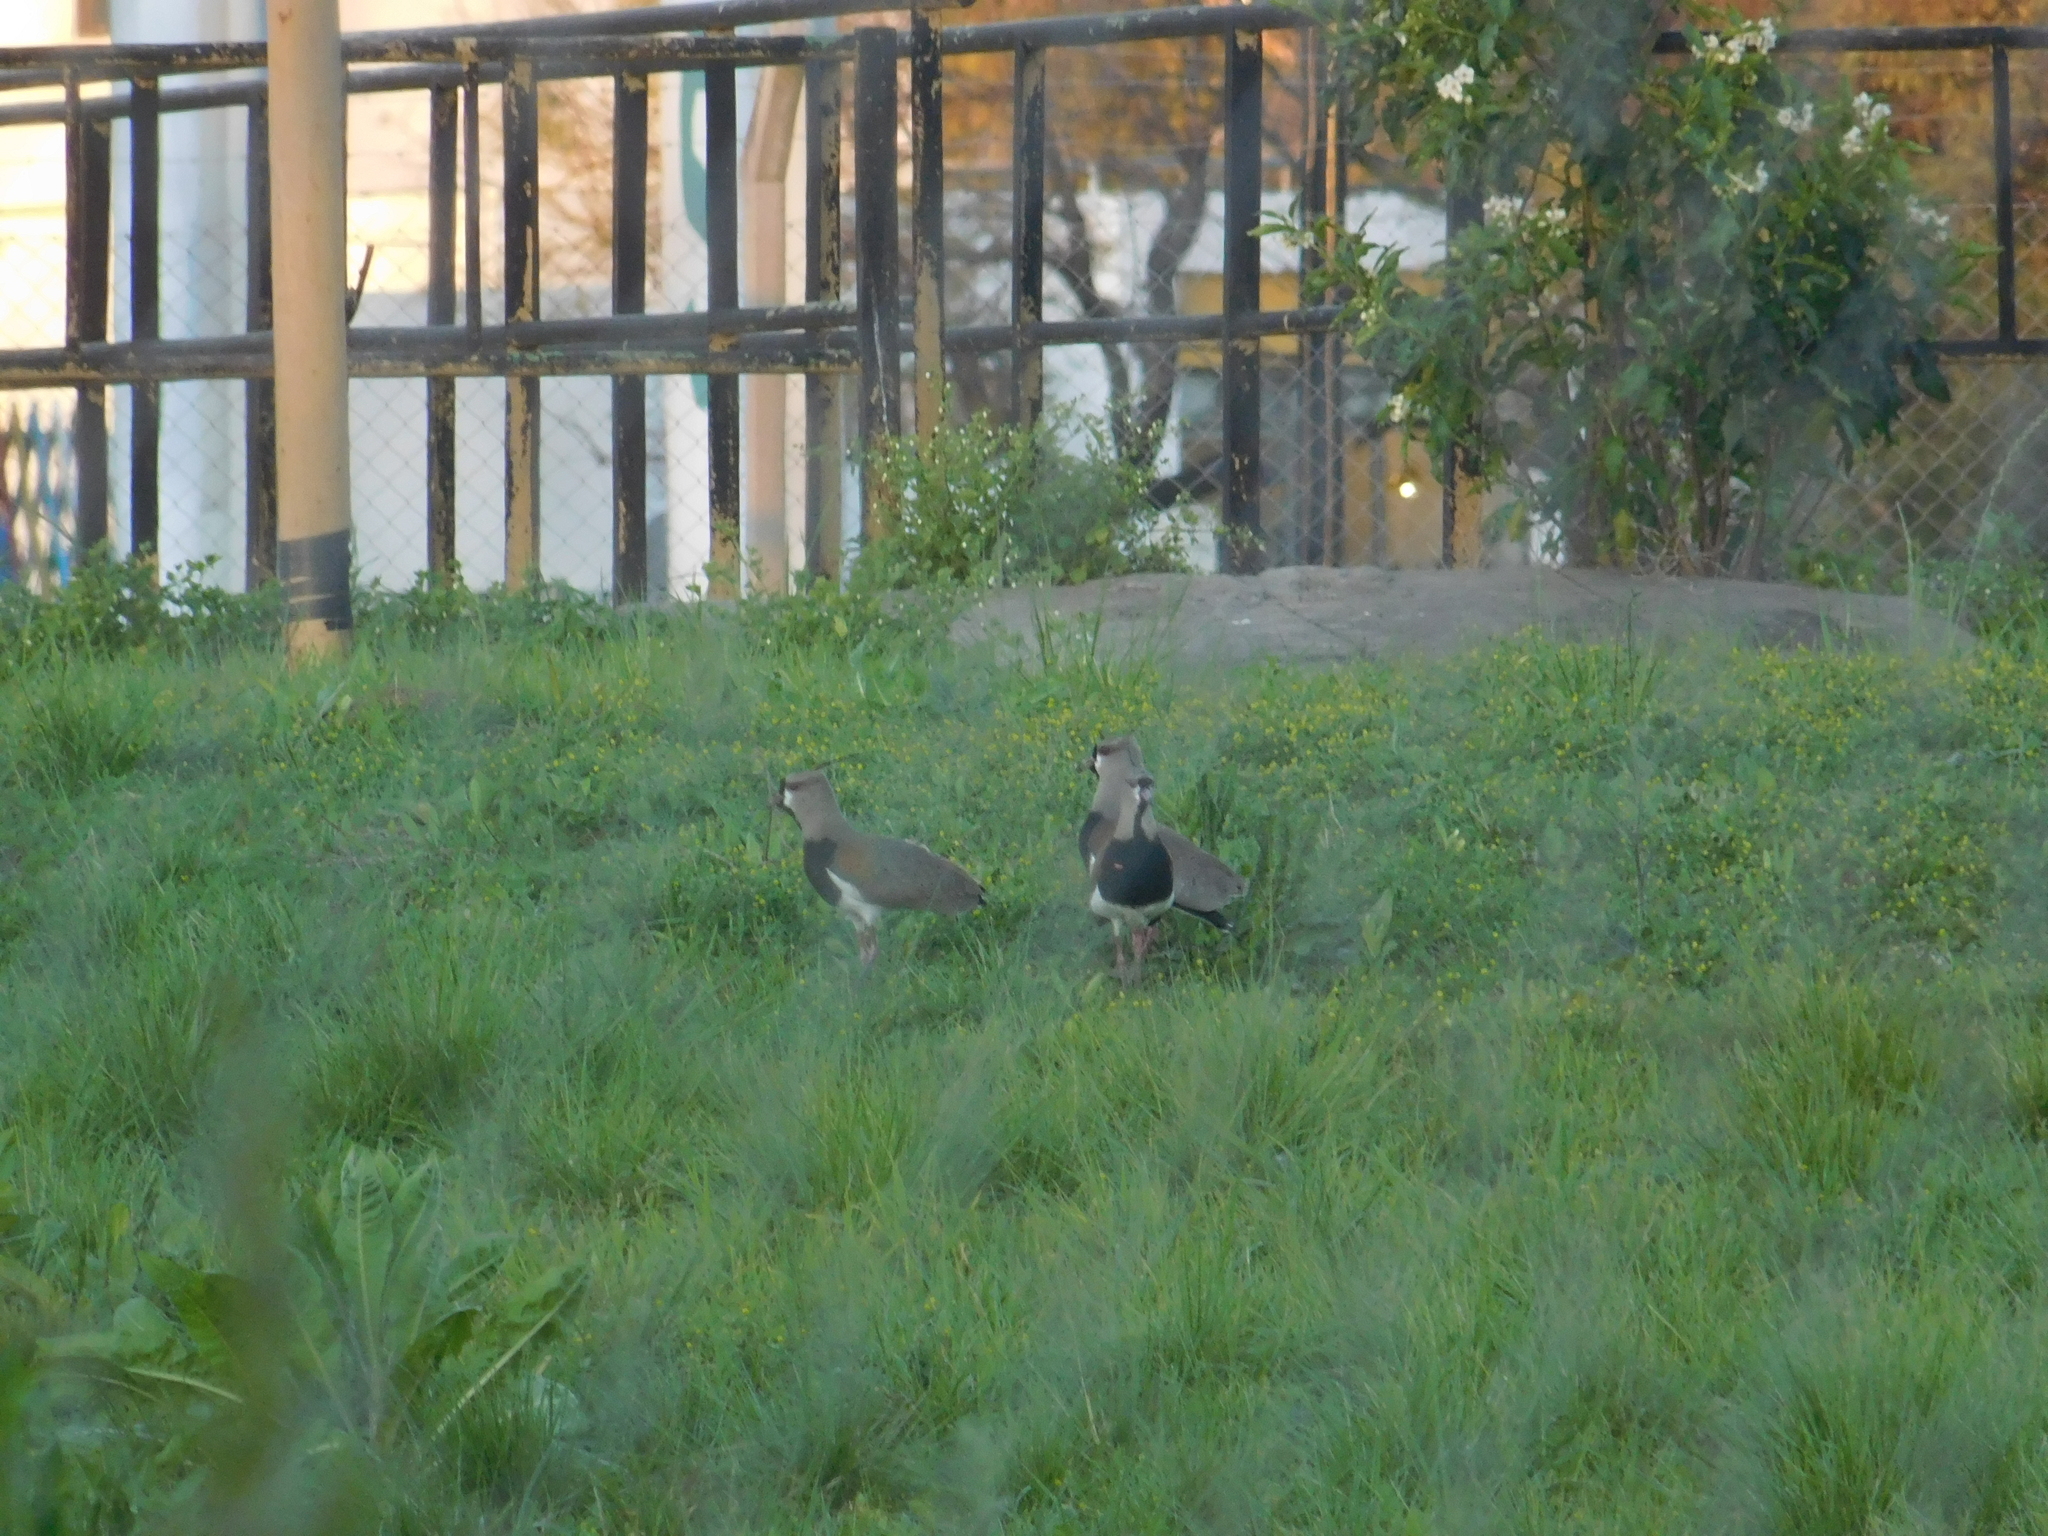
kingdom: Animalia
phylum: Chordata
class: Aves
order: Charadriiformes
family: Charadriidae
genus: Vanellus
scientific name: Vanellus chilensis
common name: Southern lapwing
